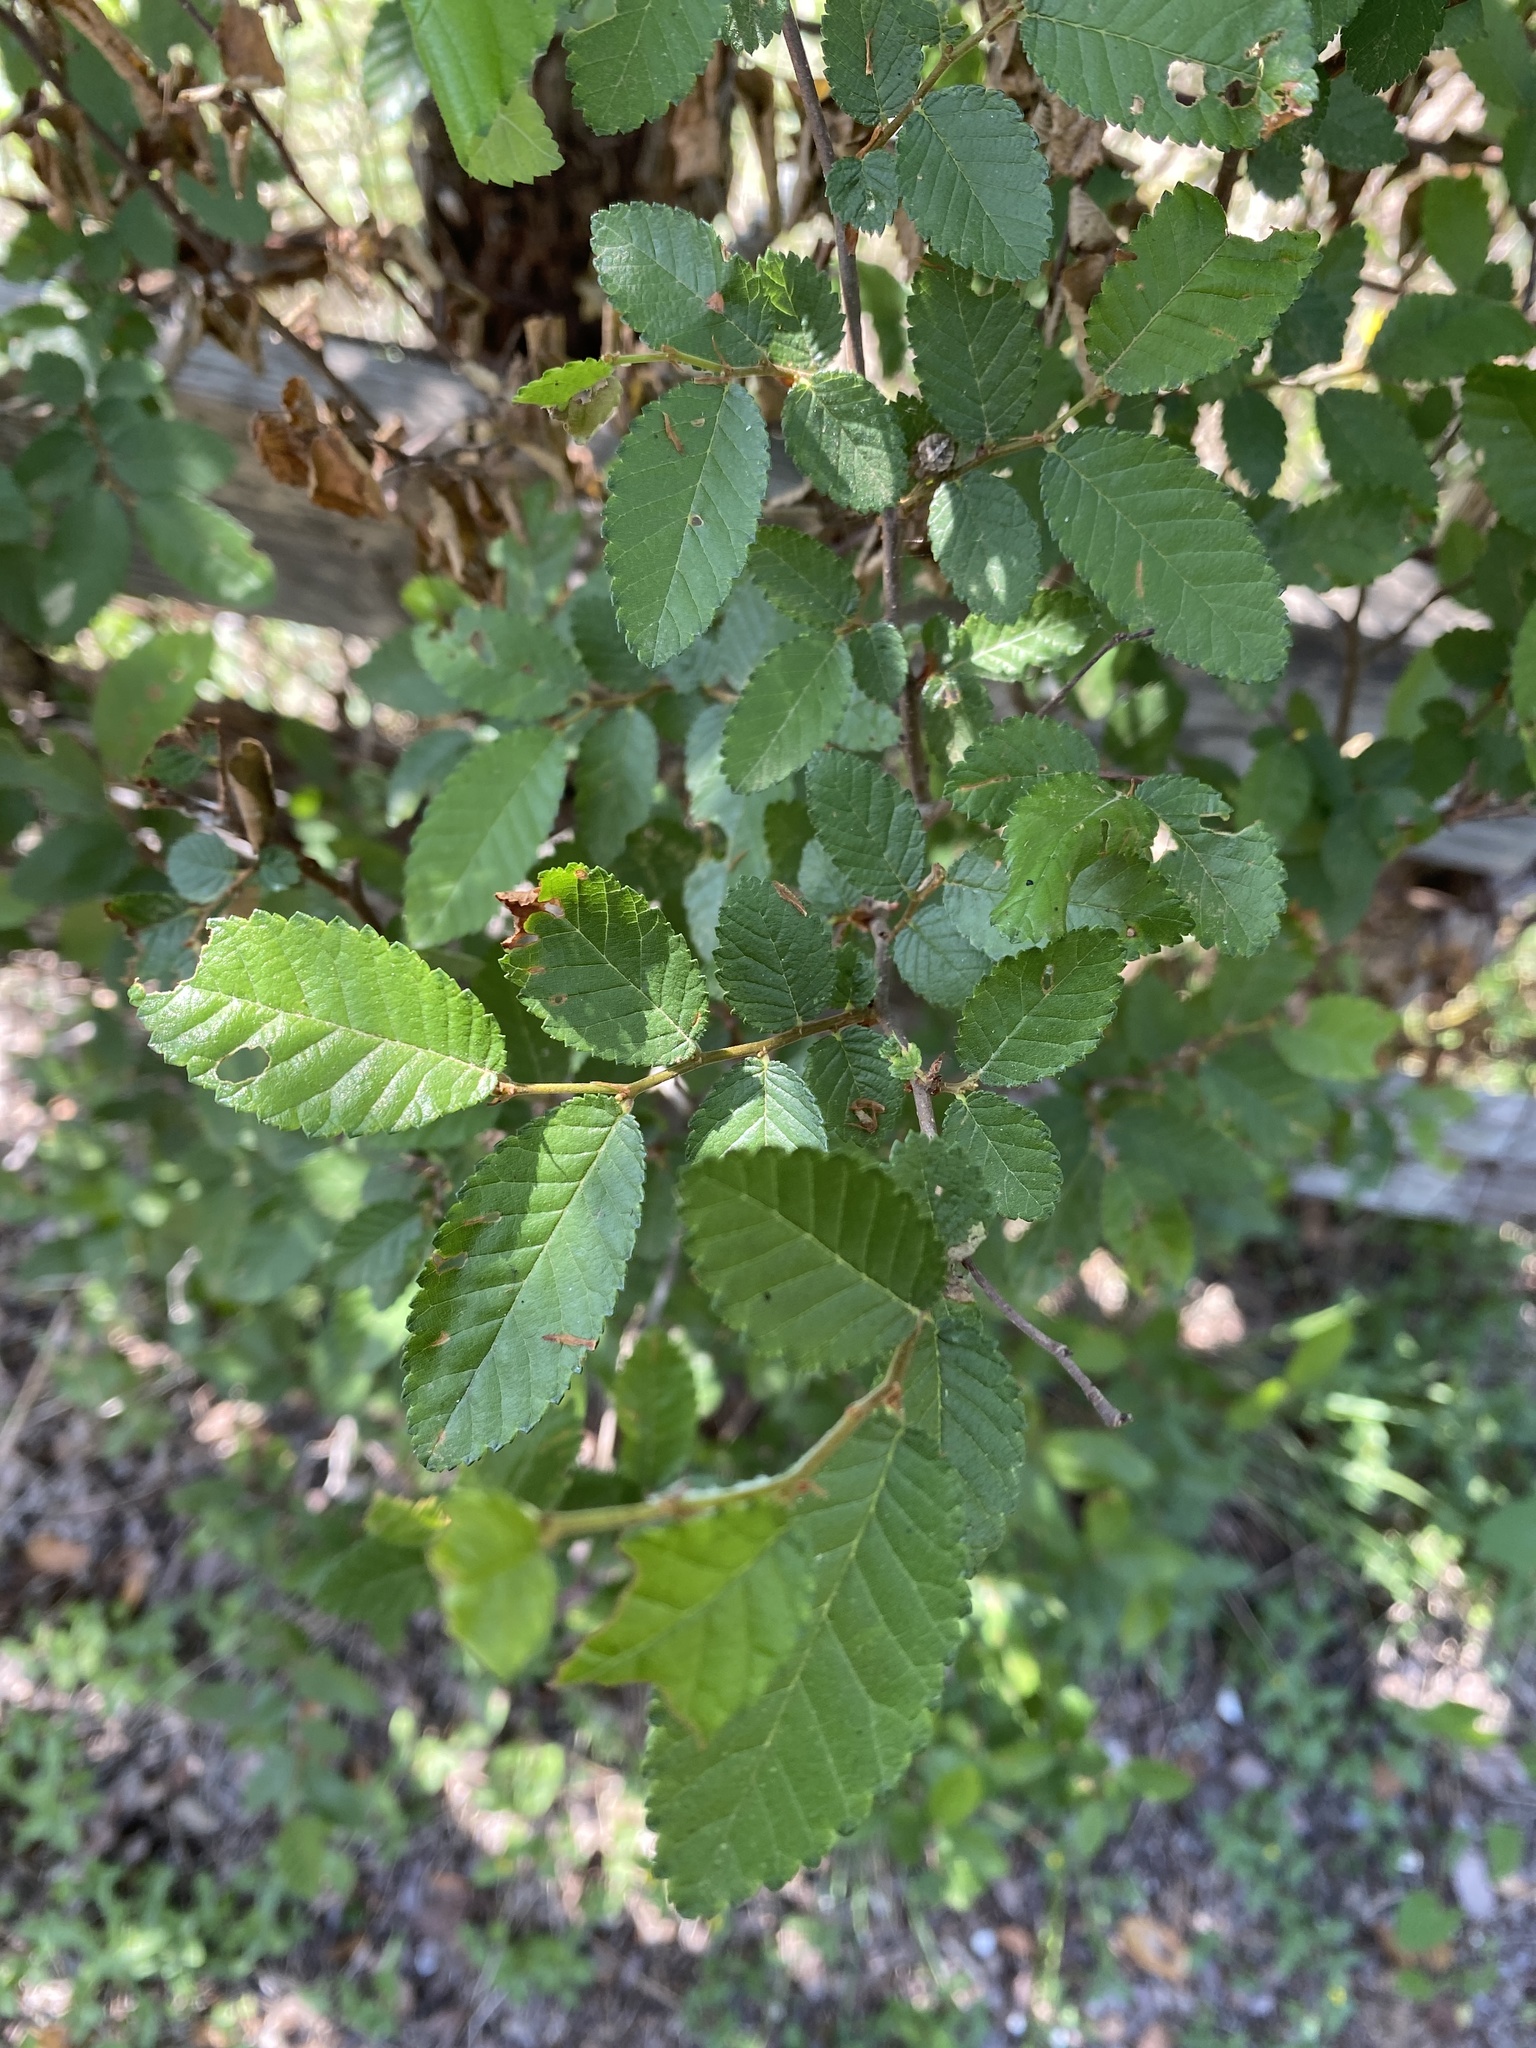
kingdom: Plantae
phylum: Tracheophyta
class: Magnoliopsida
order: Rosales
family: Ulmaceae
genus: Ulmus
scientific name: Ulmus crassifolia
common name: Basket elm
